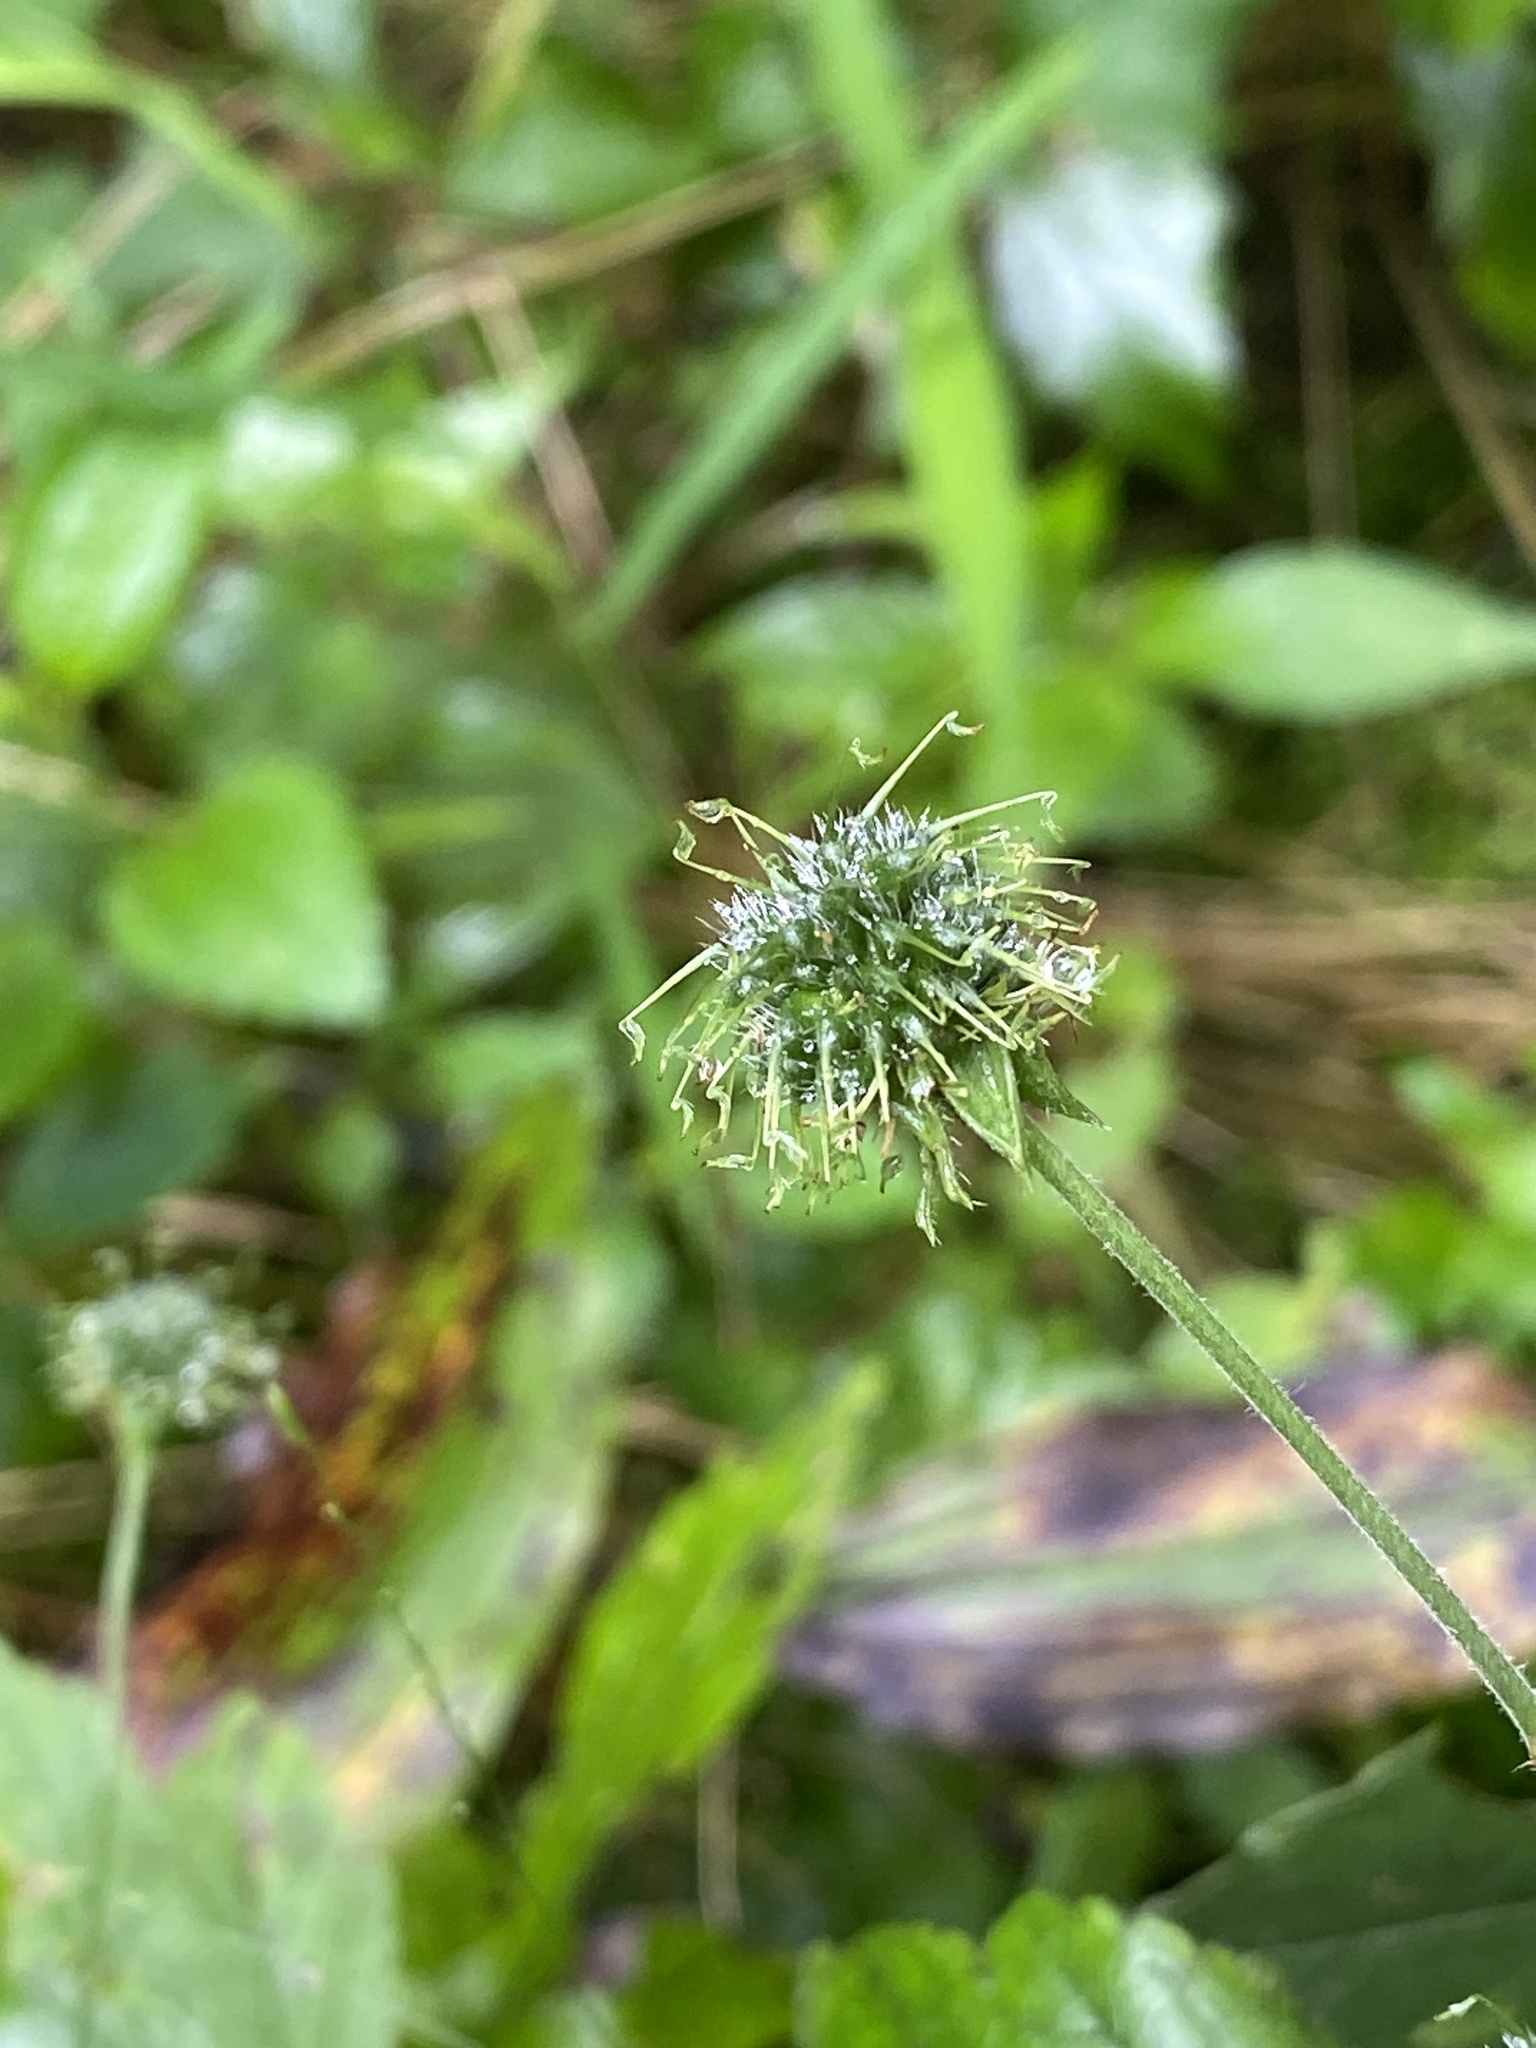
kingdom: Plantae
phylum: Tracheophyta
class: Magnoliopsida
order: Rosales
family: Rosaceae
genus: Geum
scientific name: Geum canadense
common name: White avens
